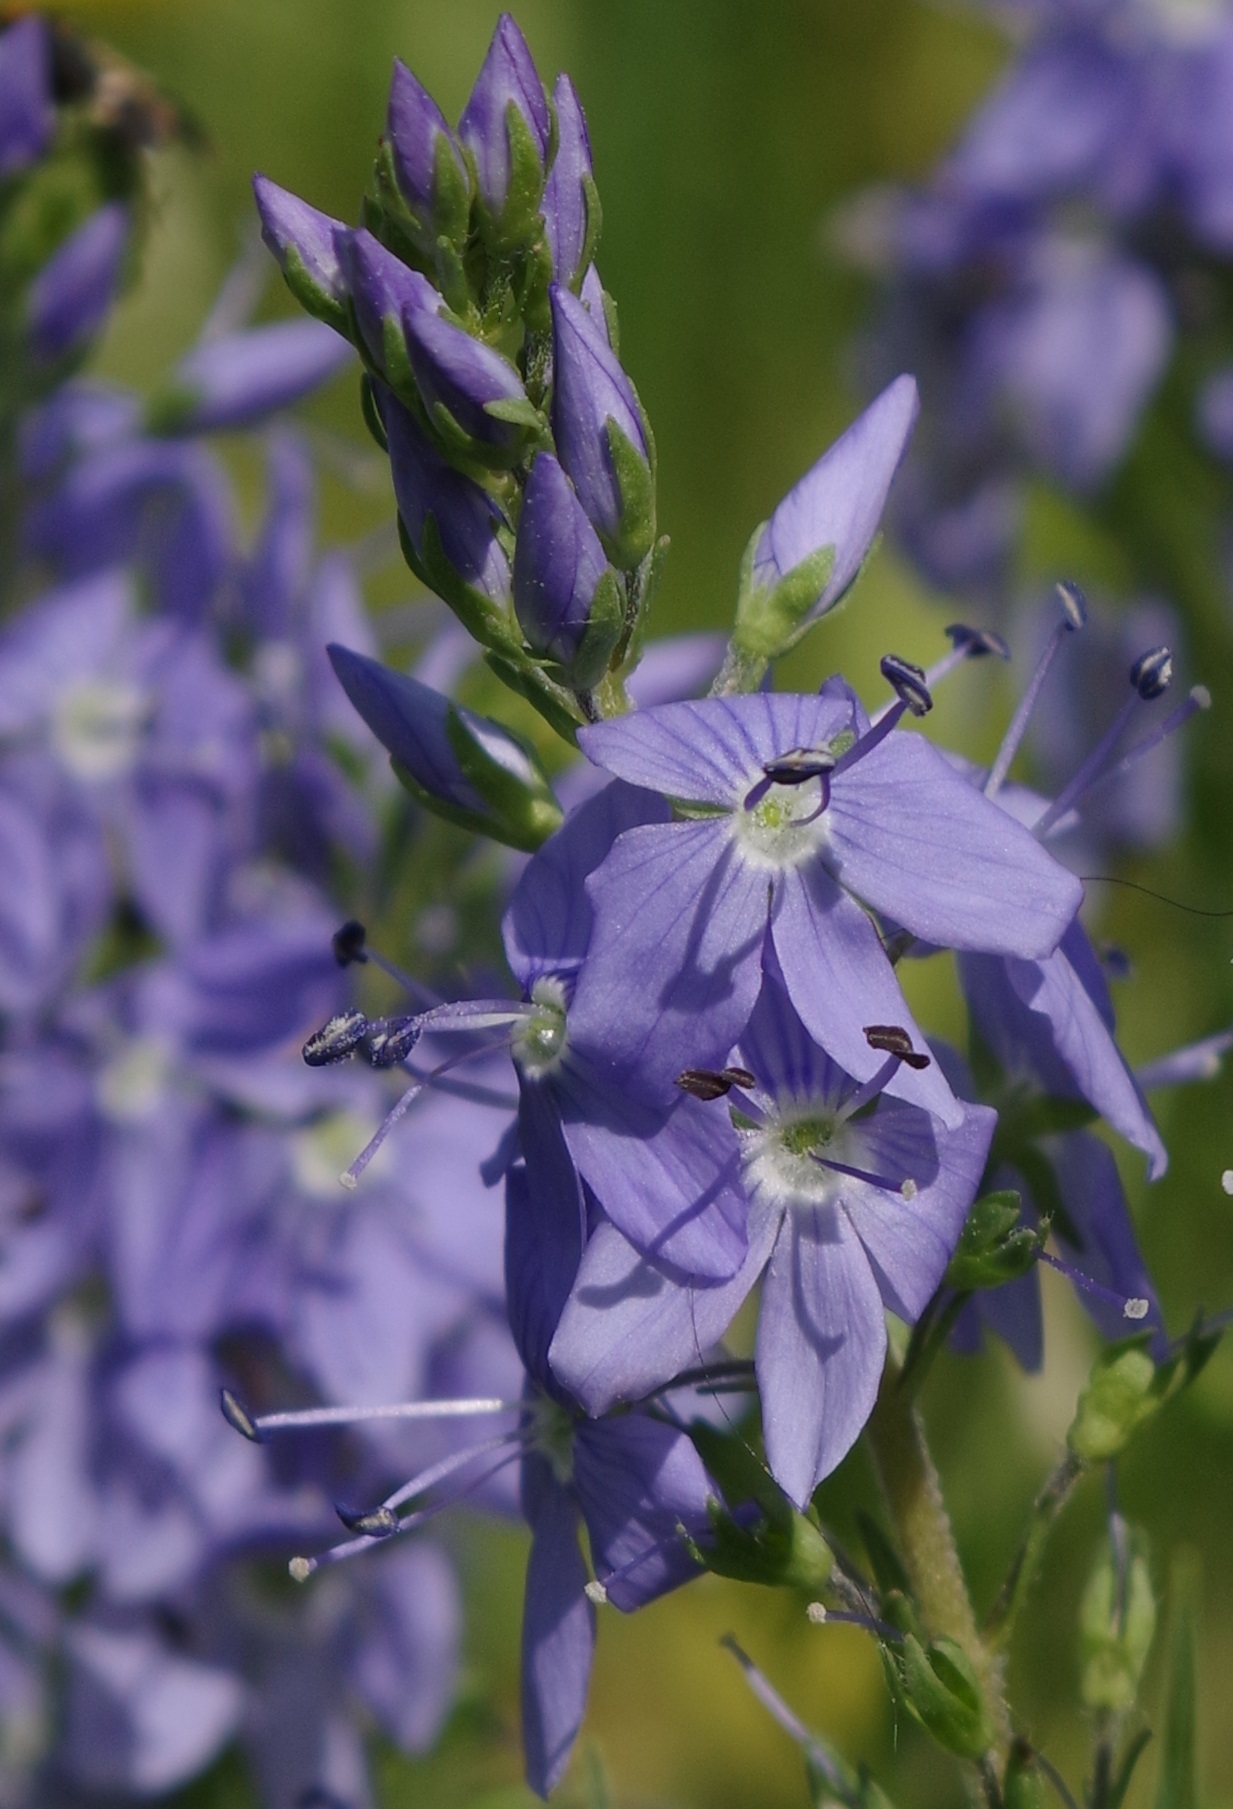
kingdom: Plantae
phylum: Tracheophyta
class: Magnoliopsida
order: Lamiales
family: Plantaginaceae
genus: Veronica
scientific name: Veronica teucrium
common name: Large speedwell
